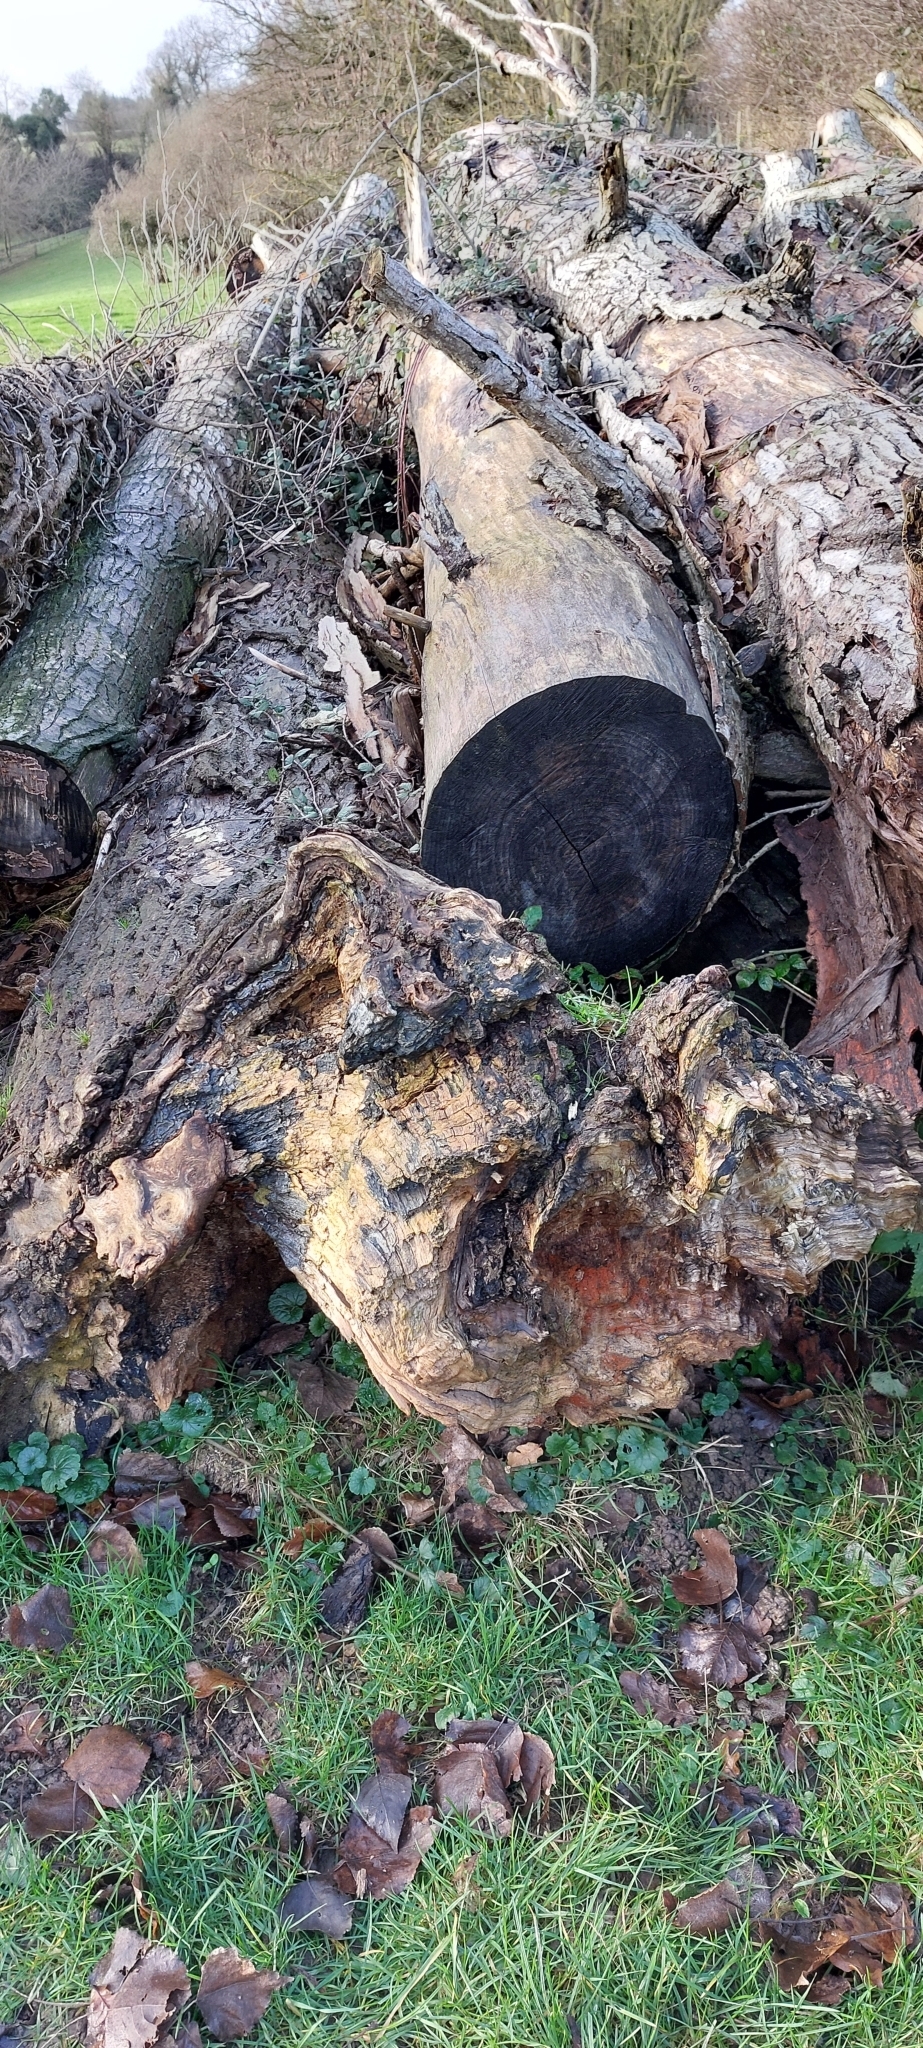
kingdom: Fungi
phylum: Ascomycota
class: Sordariomycetes
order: Hypocreales
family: Nectriaceae
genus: Hydropisphaera
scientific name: Hydropisphaera peziza
